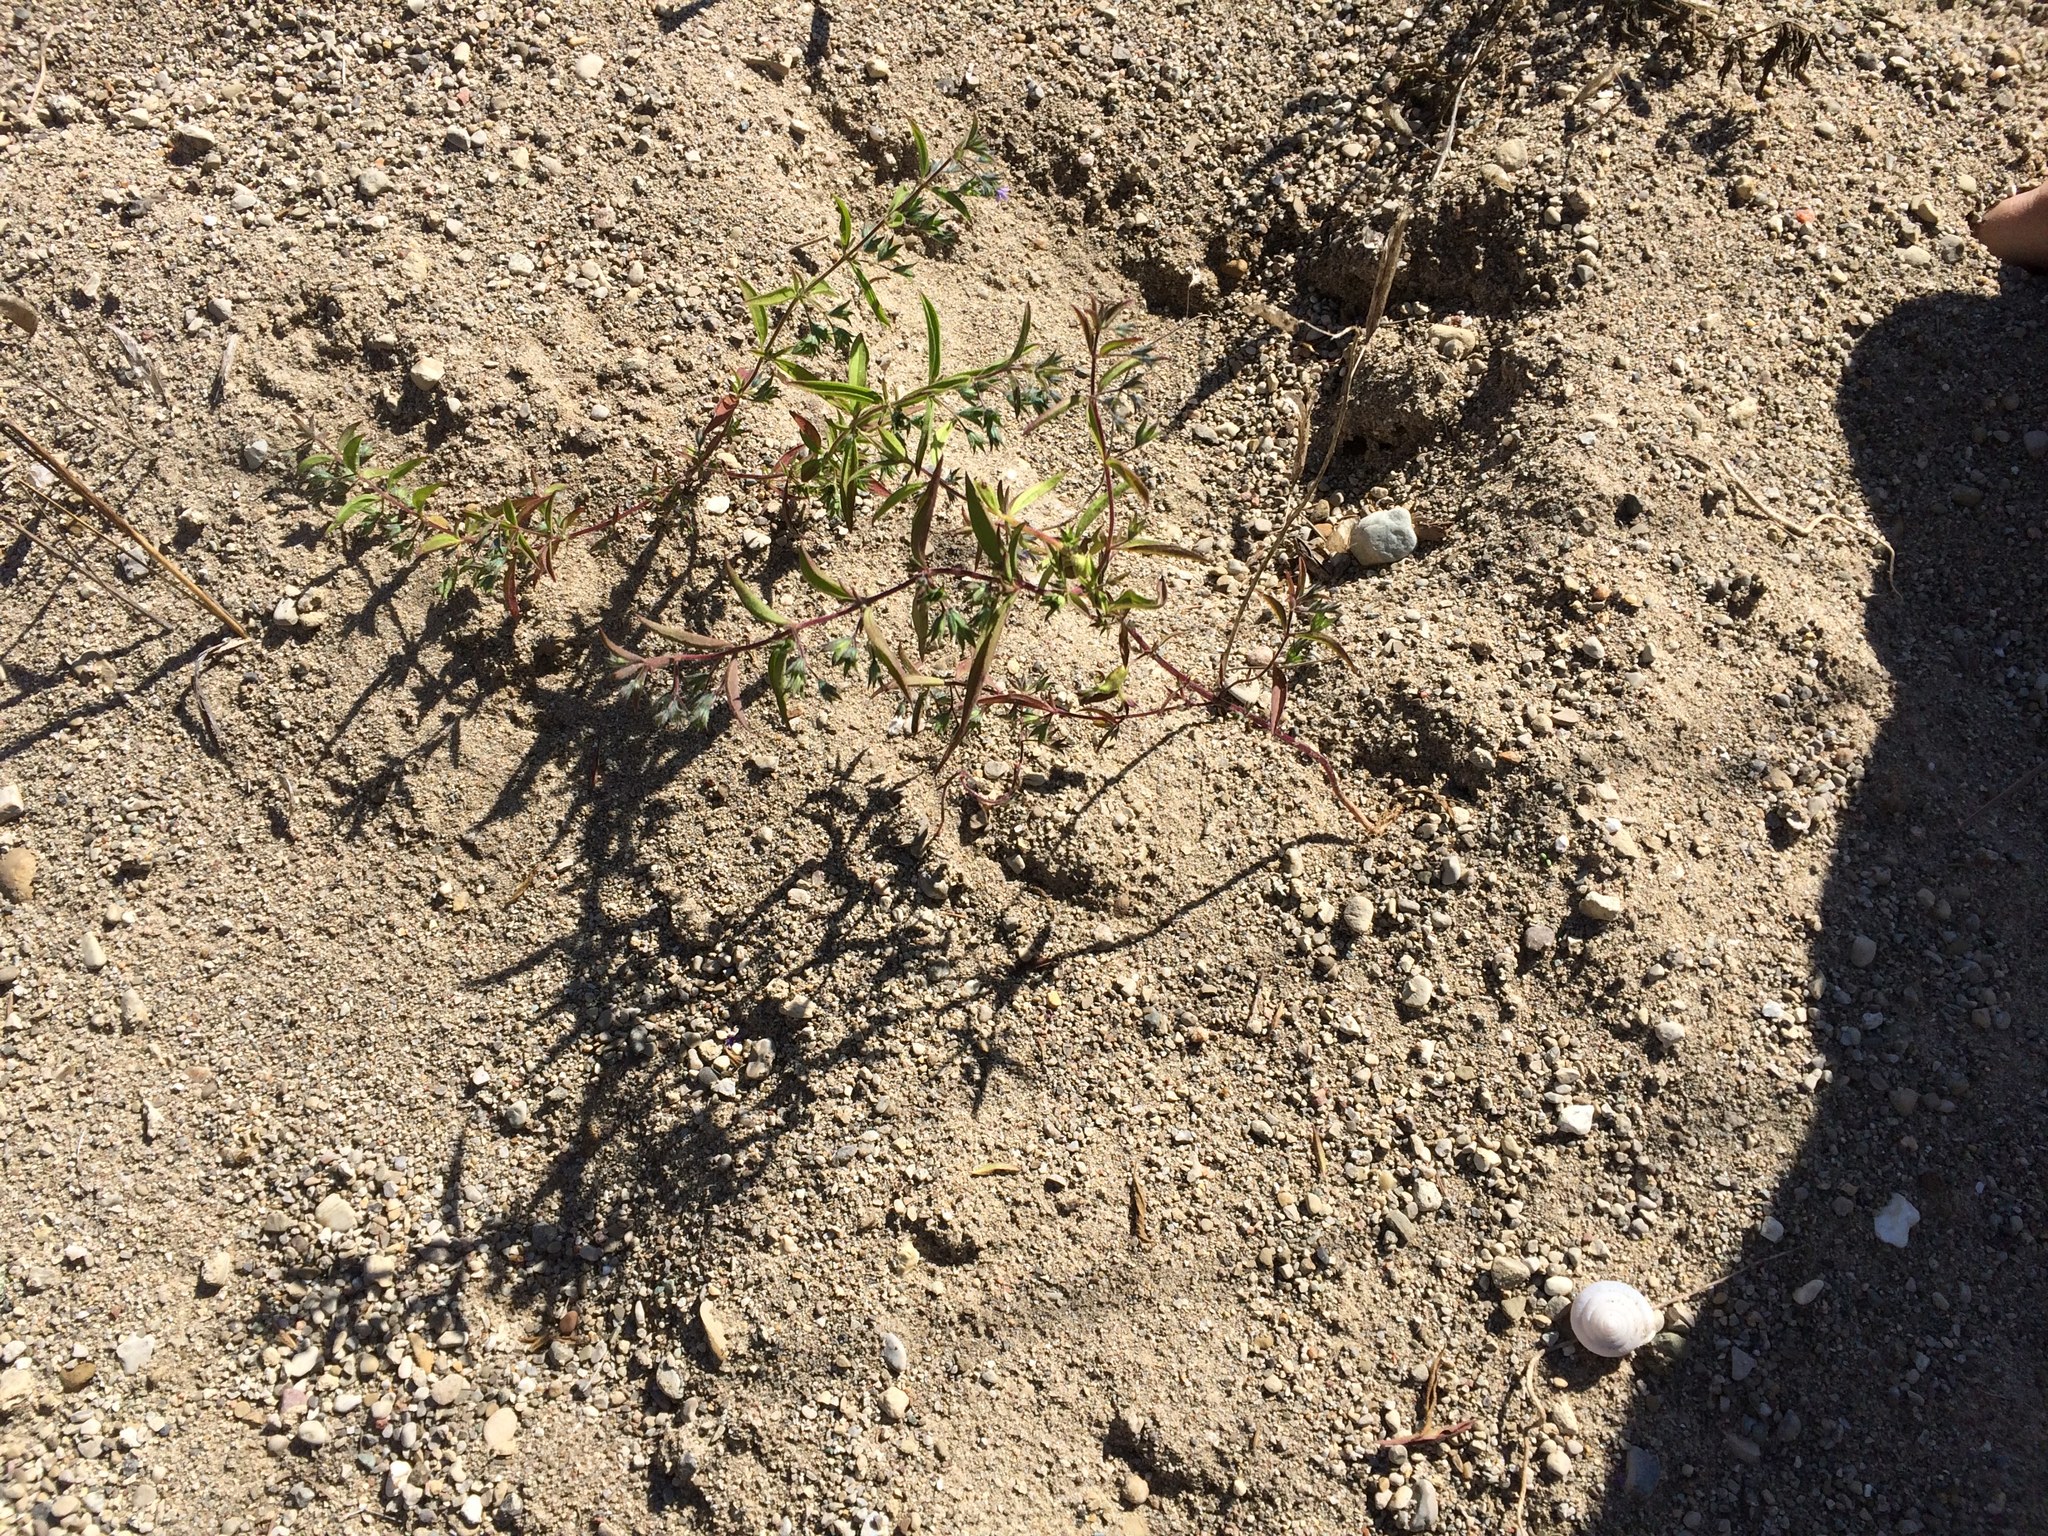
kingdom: Plantae
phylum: Tracheophyta
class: Magnoliopsida
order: Lamiales
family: Lamiaceae
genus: Trichostema
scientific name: Trichostema brachiatum
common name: False pennyroyal
